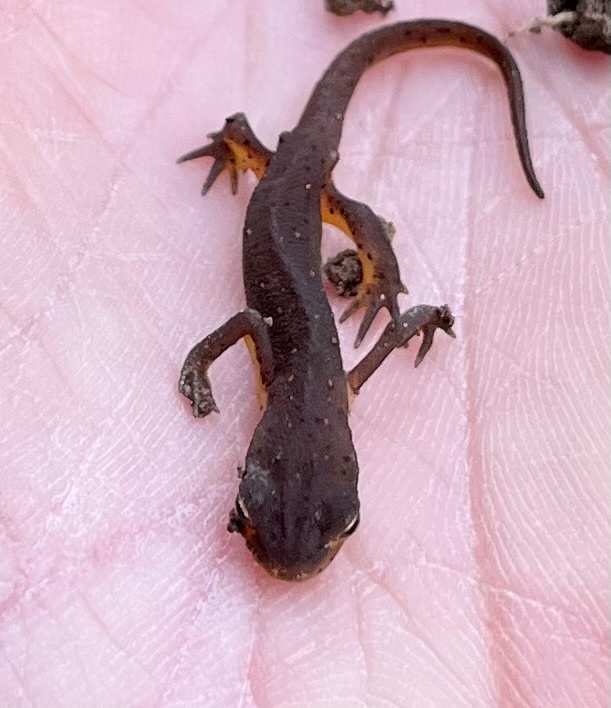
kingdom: Animalia
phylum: Chordata
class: Amphibia
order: Caudata
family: Salamandridae
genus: Notophthalmus
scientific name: Notophthalmus viridescens
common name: Eastern newt
